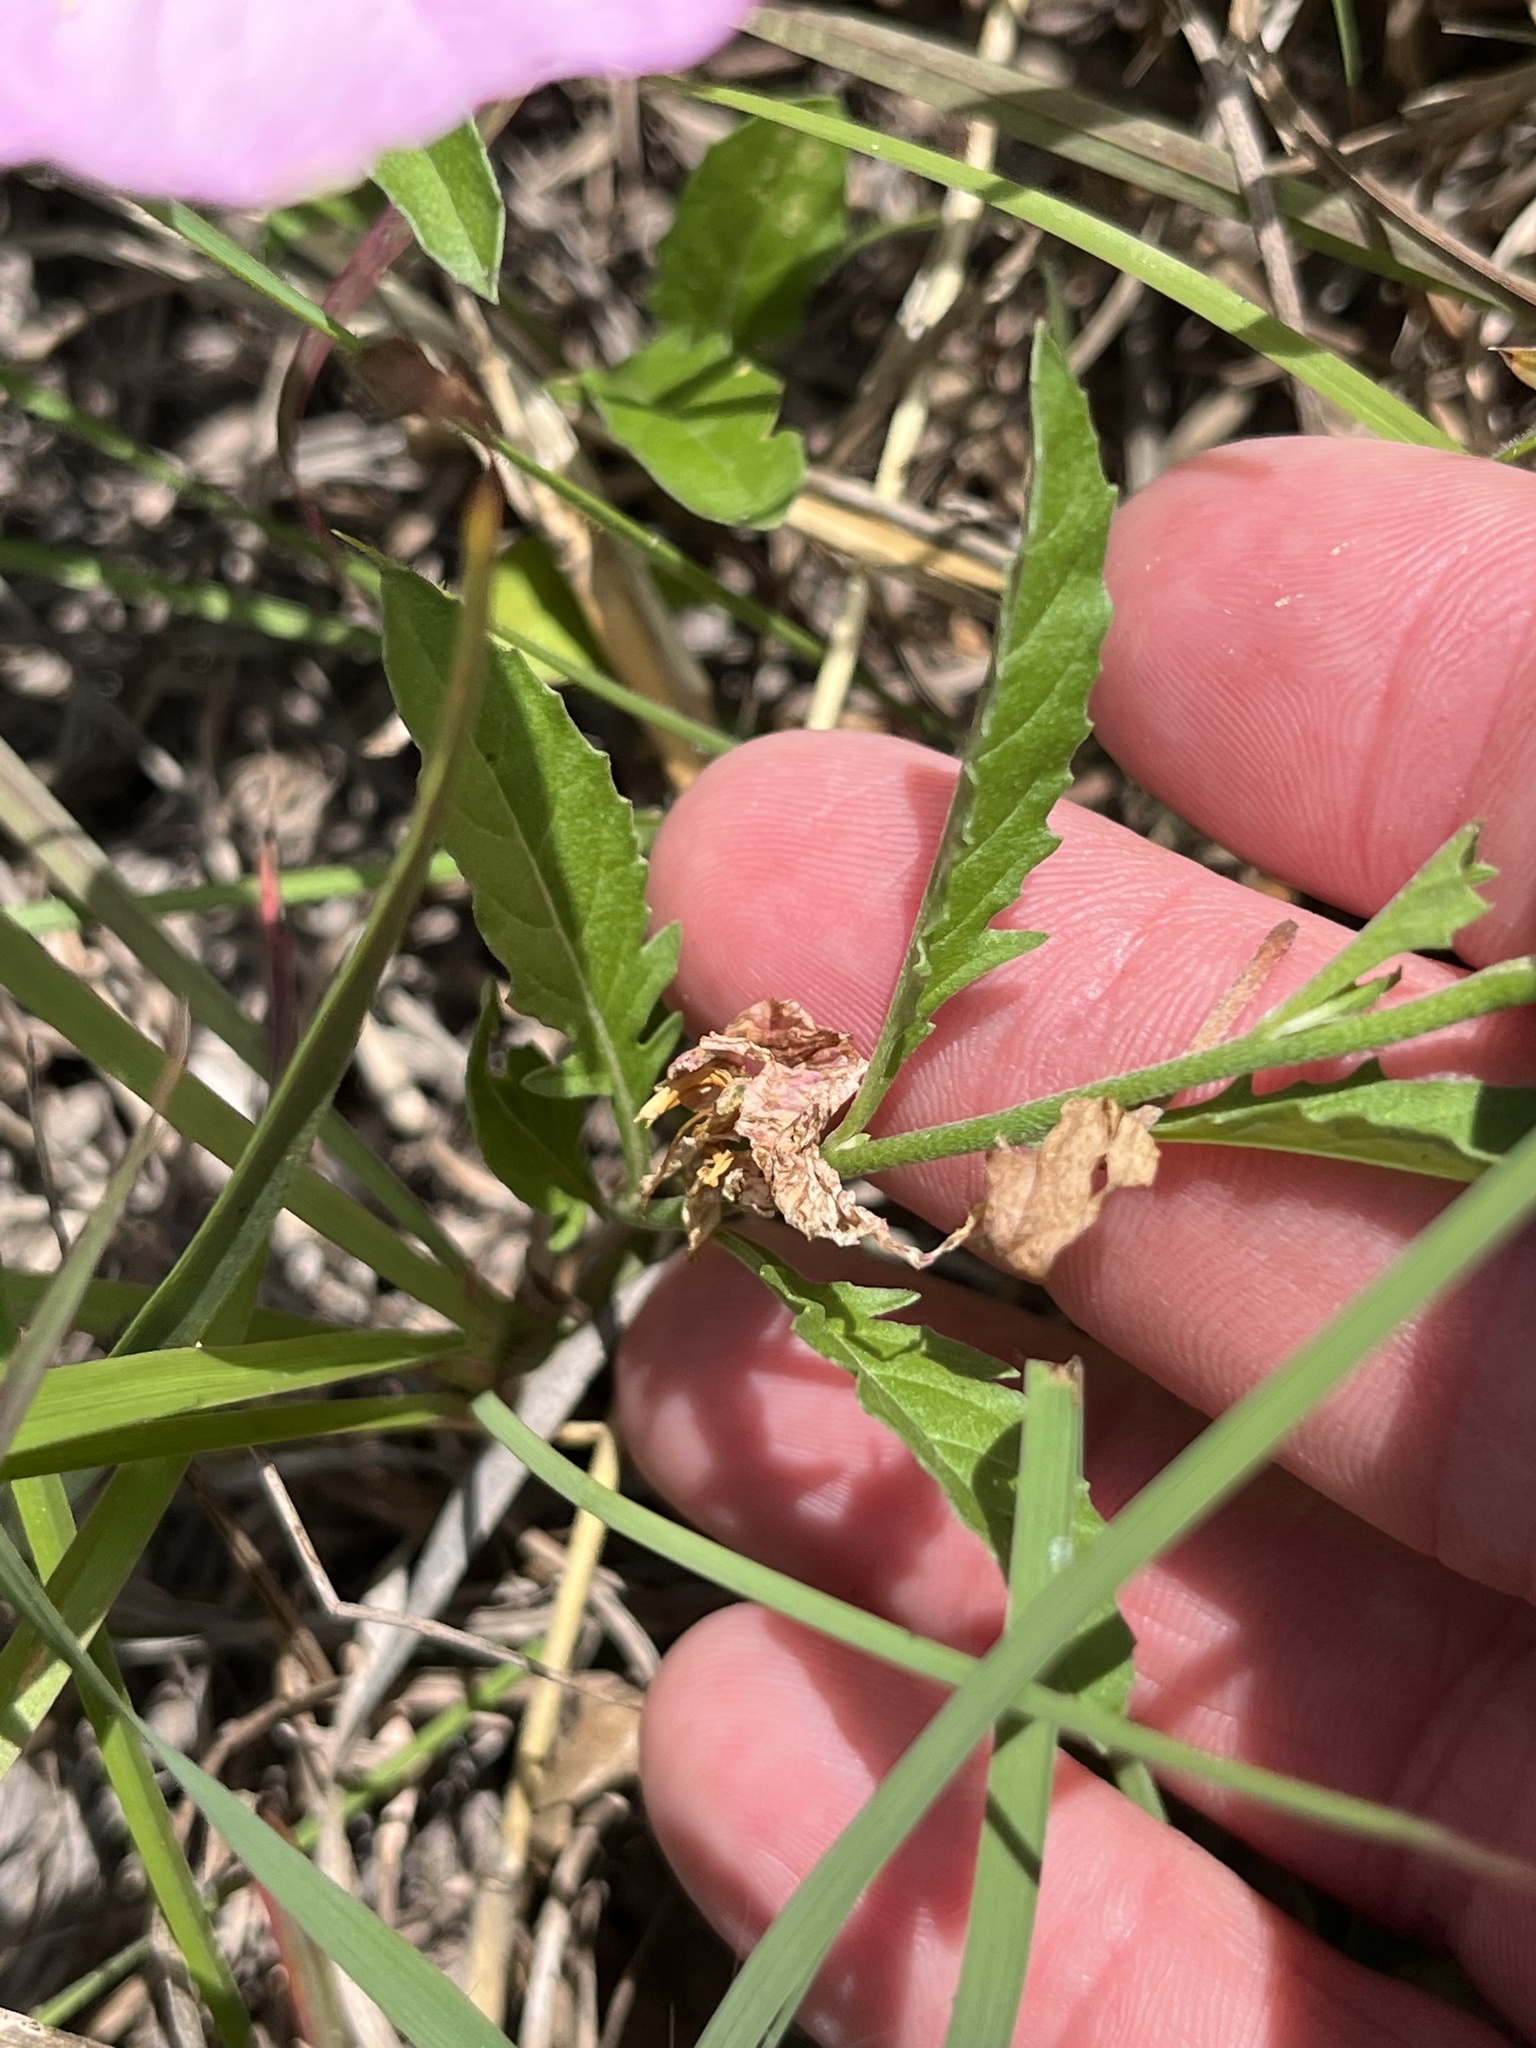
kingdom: Plantae
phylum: Tracheophyta
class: Magnoliopsida
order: Myrtales
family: Onagraceae
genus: Oenothera
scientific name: Oenothera speciosa
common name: White evening-primrose
